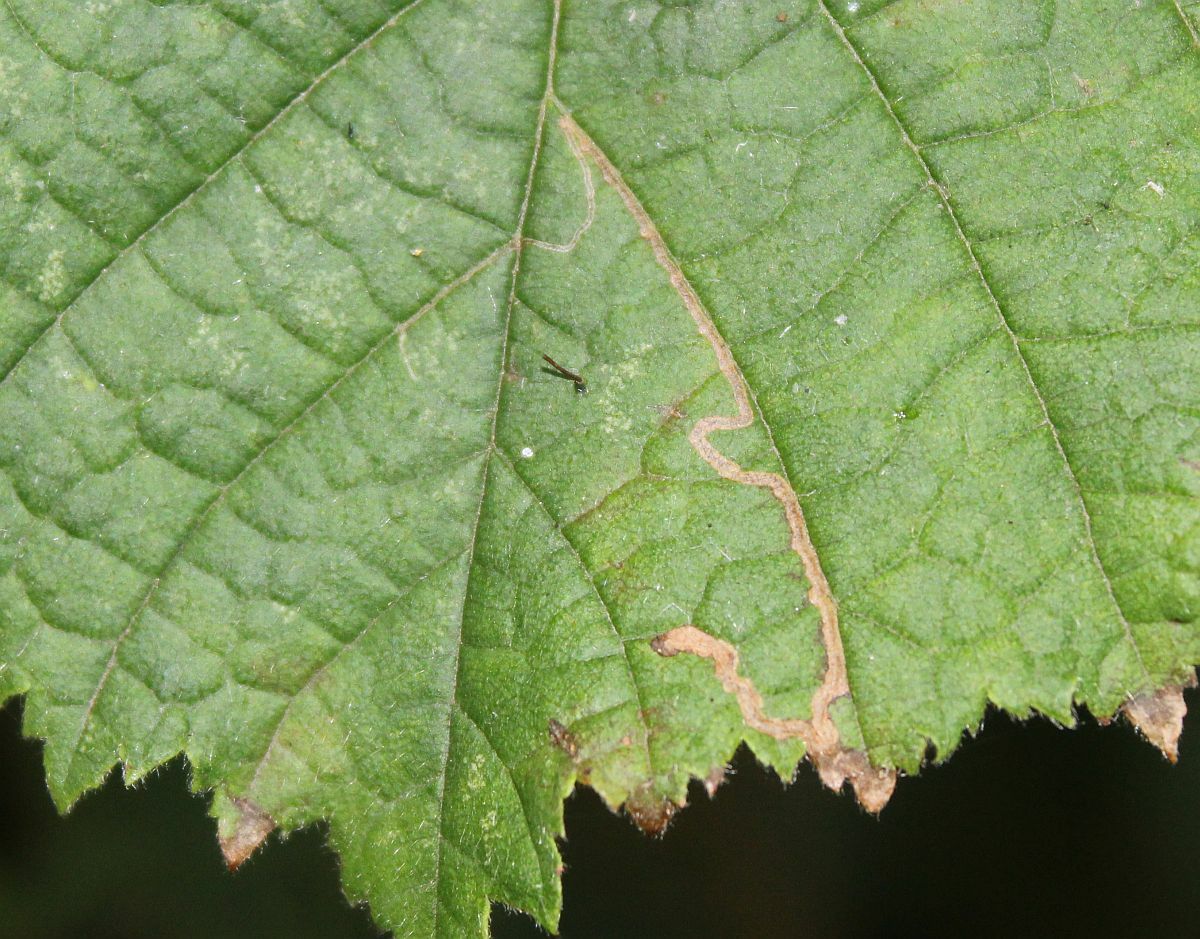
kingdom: Animalia
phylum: Arthropoda
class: Insecta
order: Lepidoptera
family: Nepticulidae
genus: Stigmella
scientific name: Stigmella microtheriella
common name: Nut-tree pigmy
